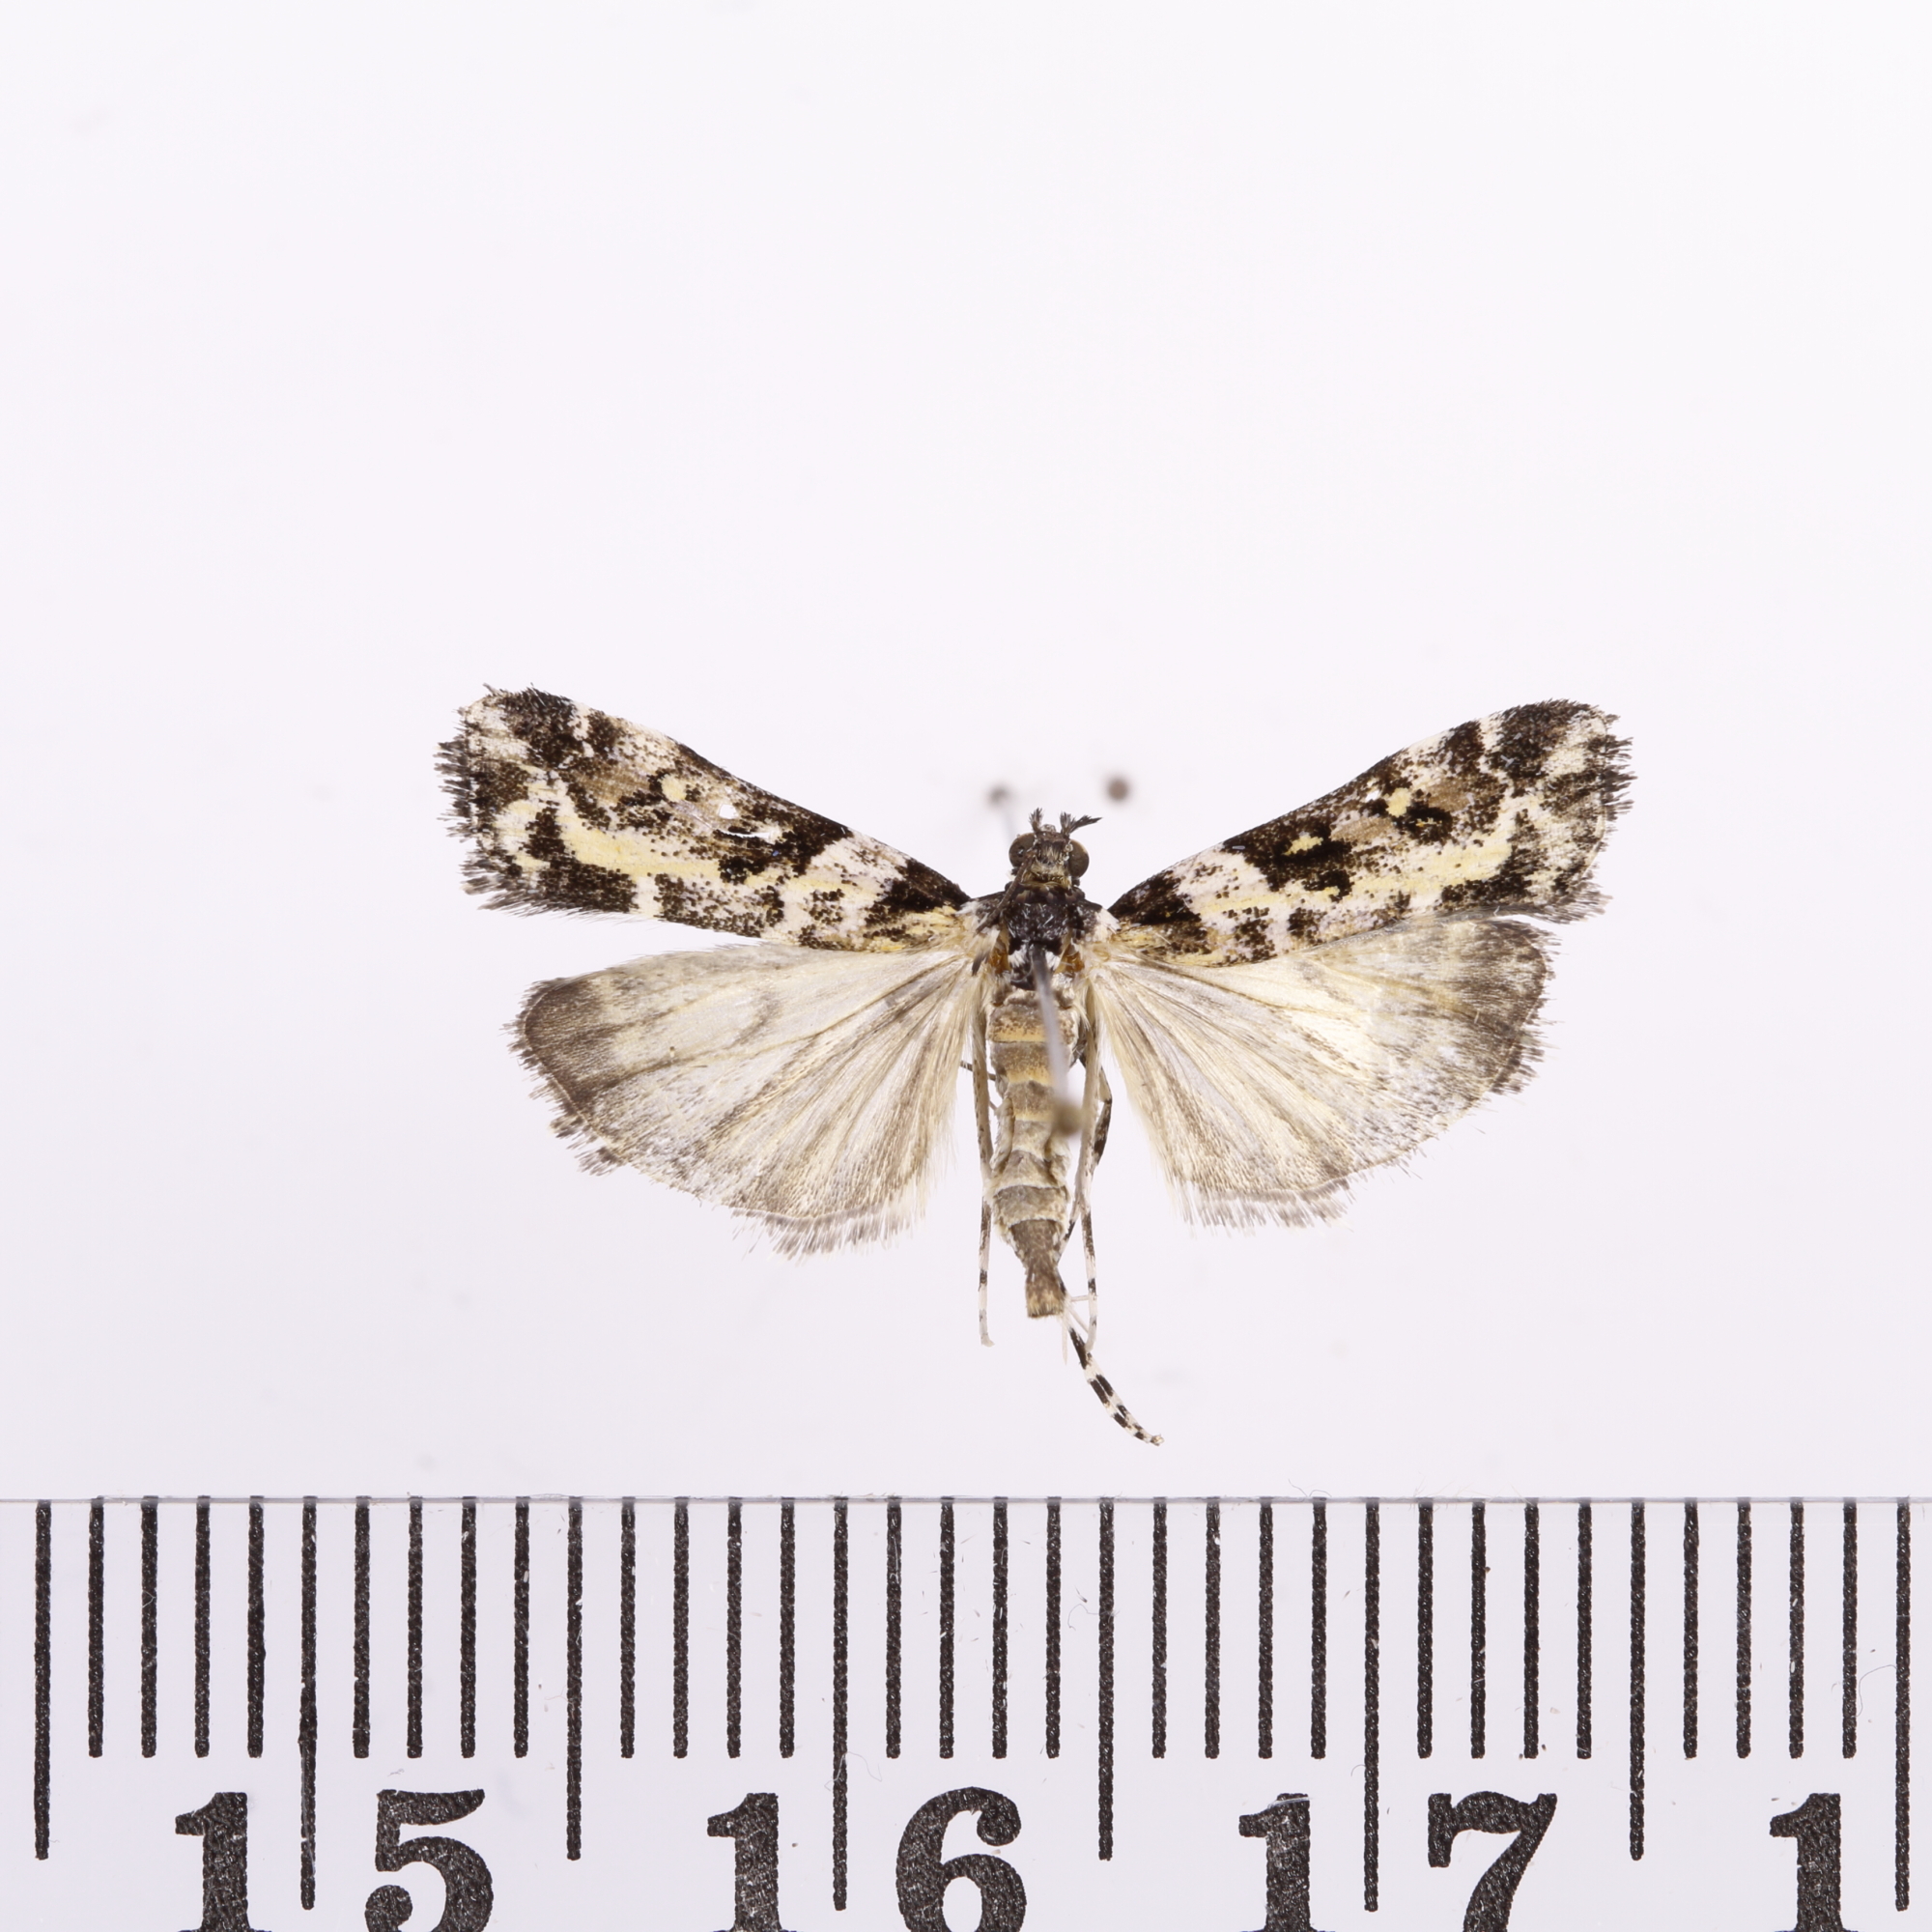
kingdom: Animalia
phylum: Arthropoda
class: Insecta
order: Lepidoptera
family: Crambidae
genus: Eudonia
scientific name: Eudonia diphtheralis
